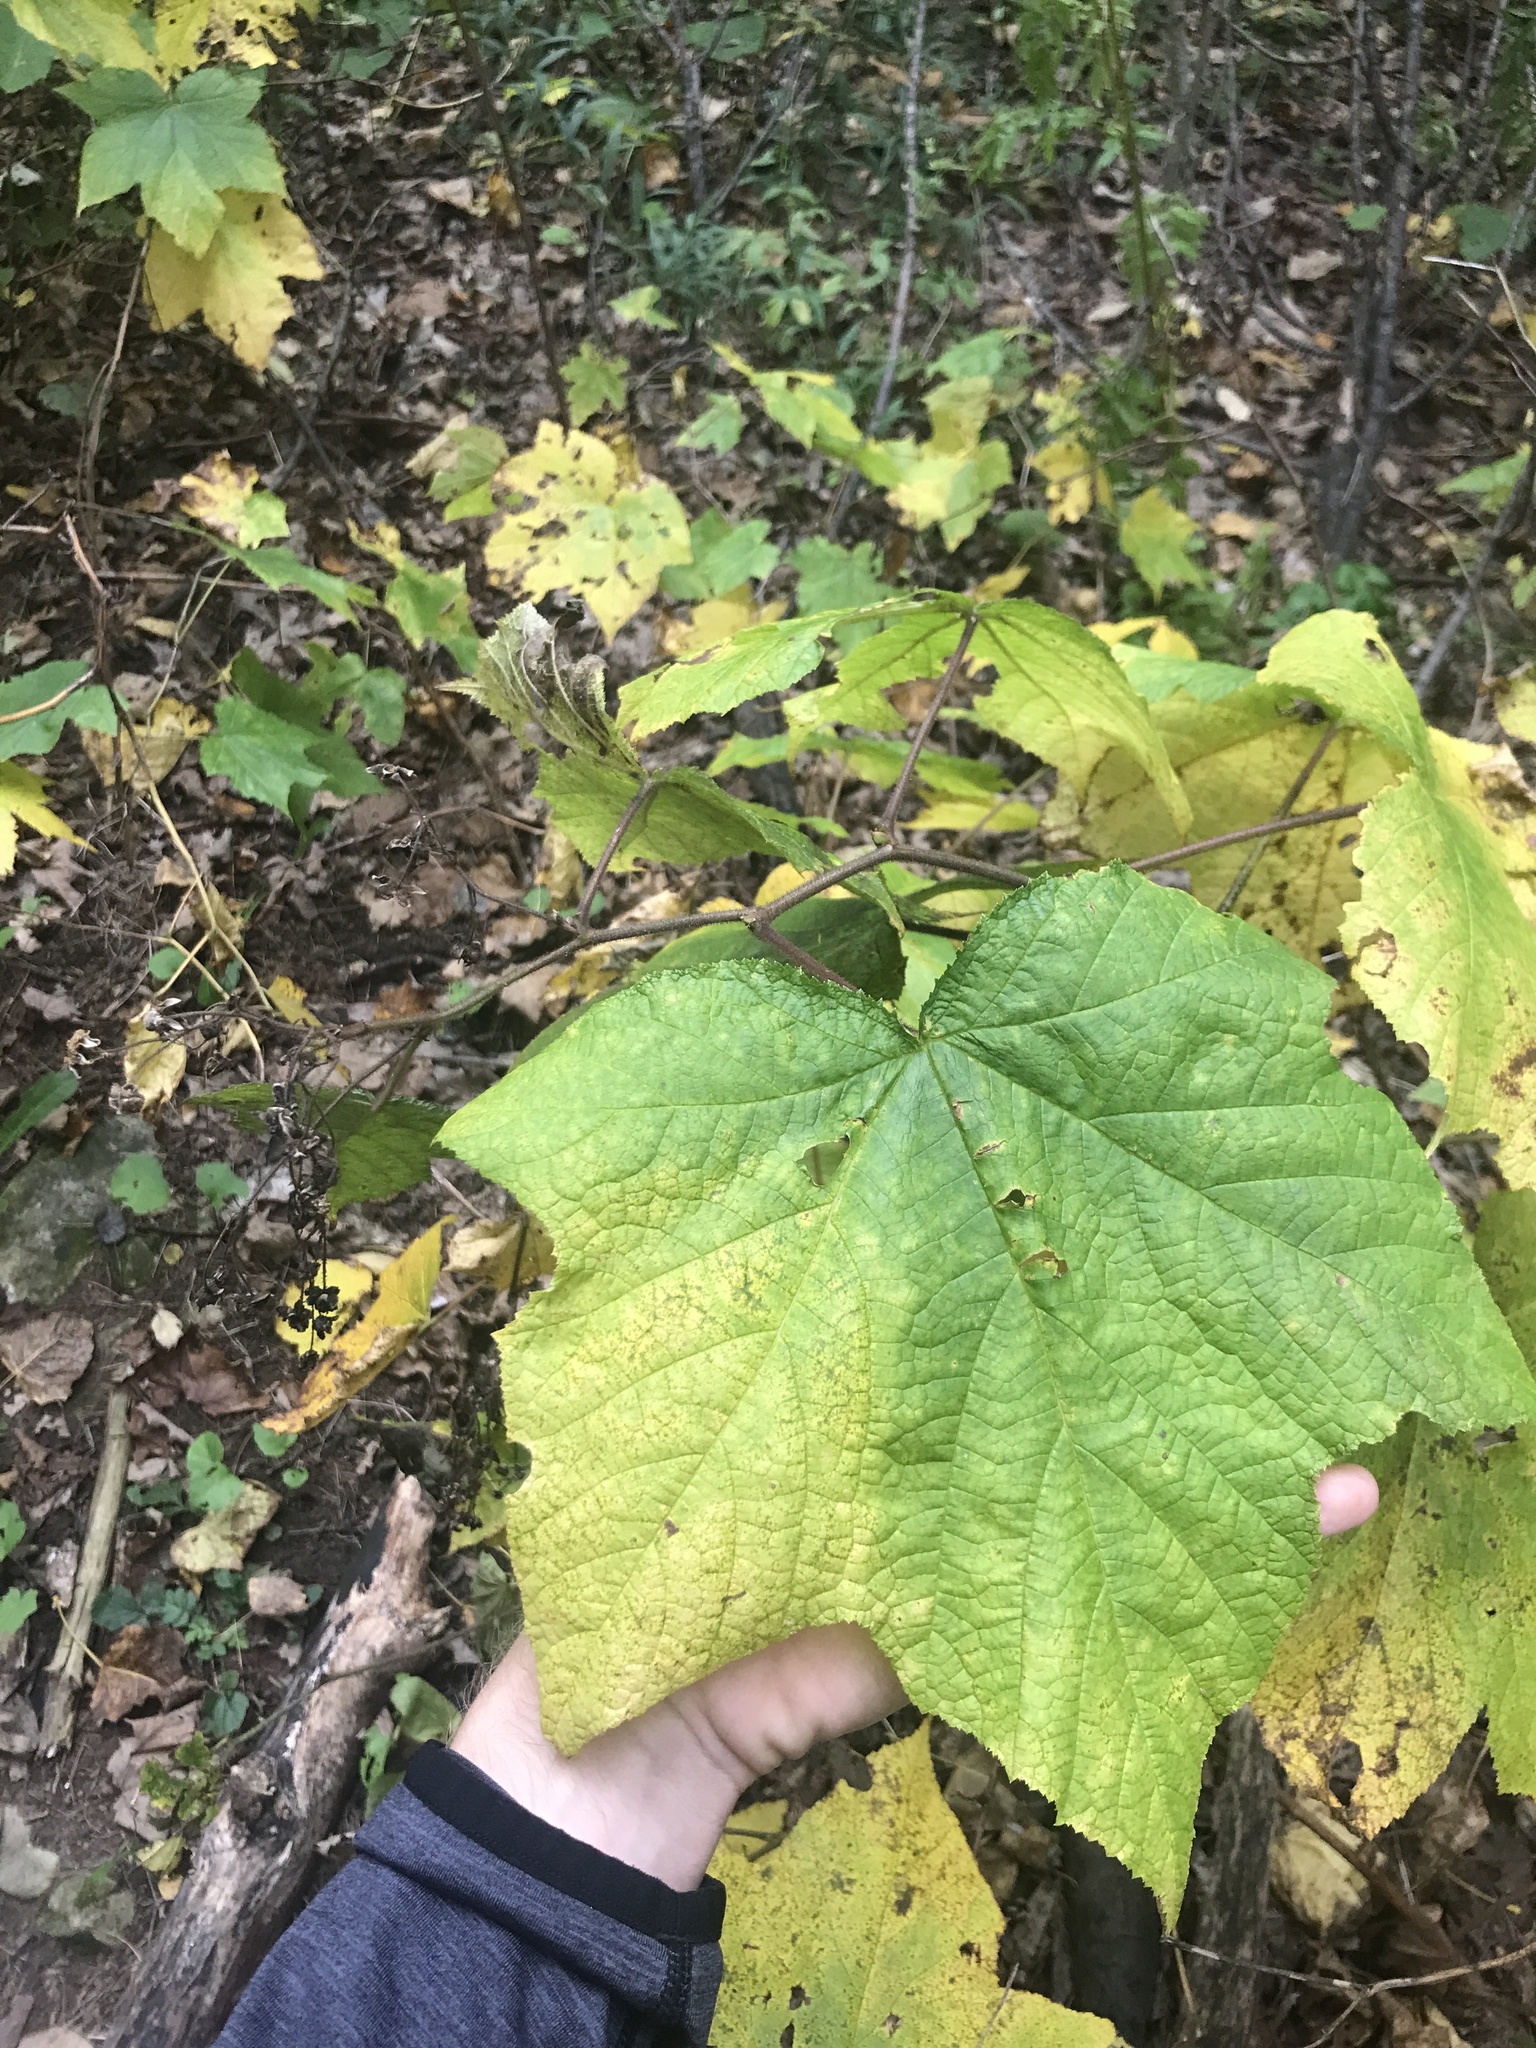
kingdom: Plantae
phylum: Tracheophyta
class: Magnoliopsida
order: Rosales
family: Rosaceae
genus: Rubus
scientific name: Rubus odoratus
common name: Purple-flowered raspberry
